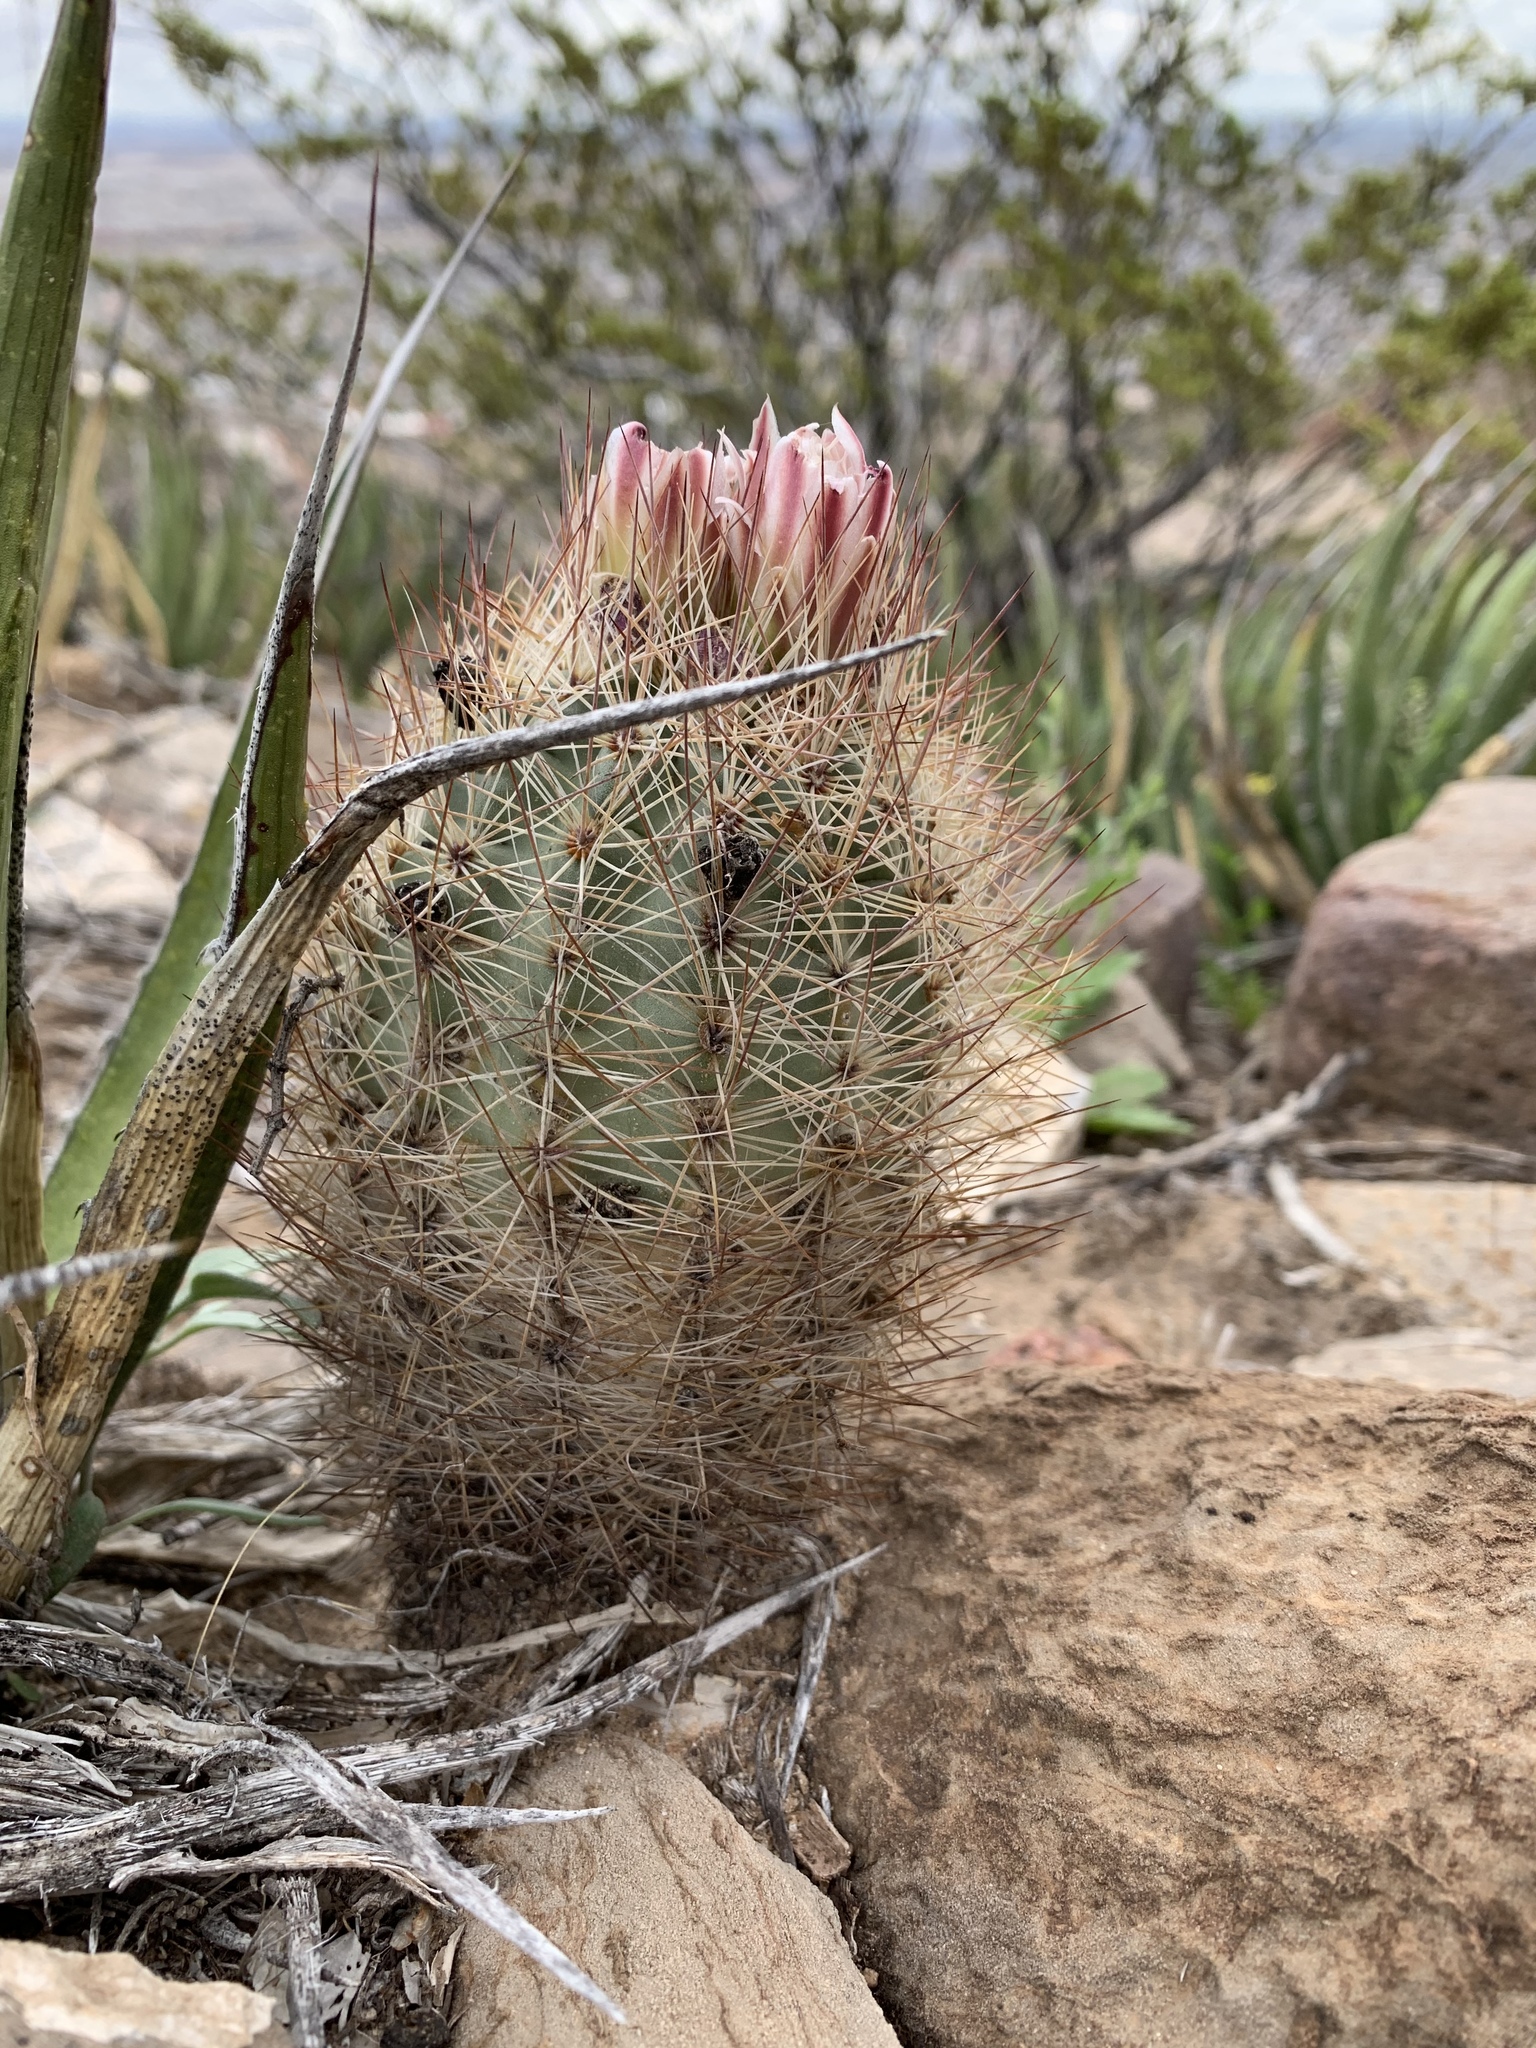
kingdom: Plantae
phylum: Tracheophyta
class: Magnoliopsida
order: Caryophyllales
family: Cactaceae
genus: Sclerocactus
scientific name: Sclerocactus intertextus
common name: White fish-hook cactus
